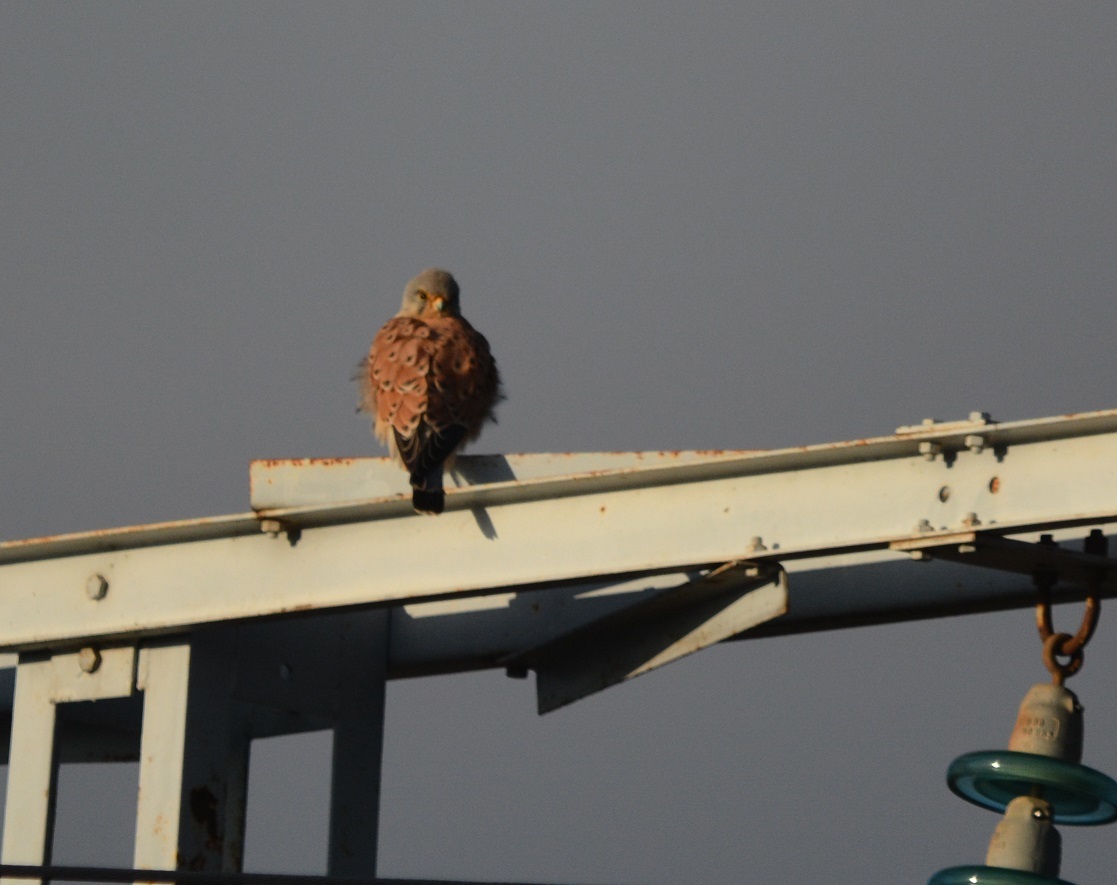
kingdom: Animalia
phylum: Chordata
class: Aves
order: Falconiformes
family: Falconidae
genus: Falco
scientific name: Falco tinnunculus
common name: Common kestrel
